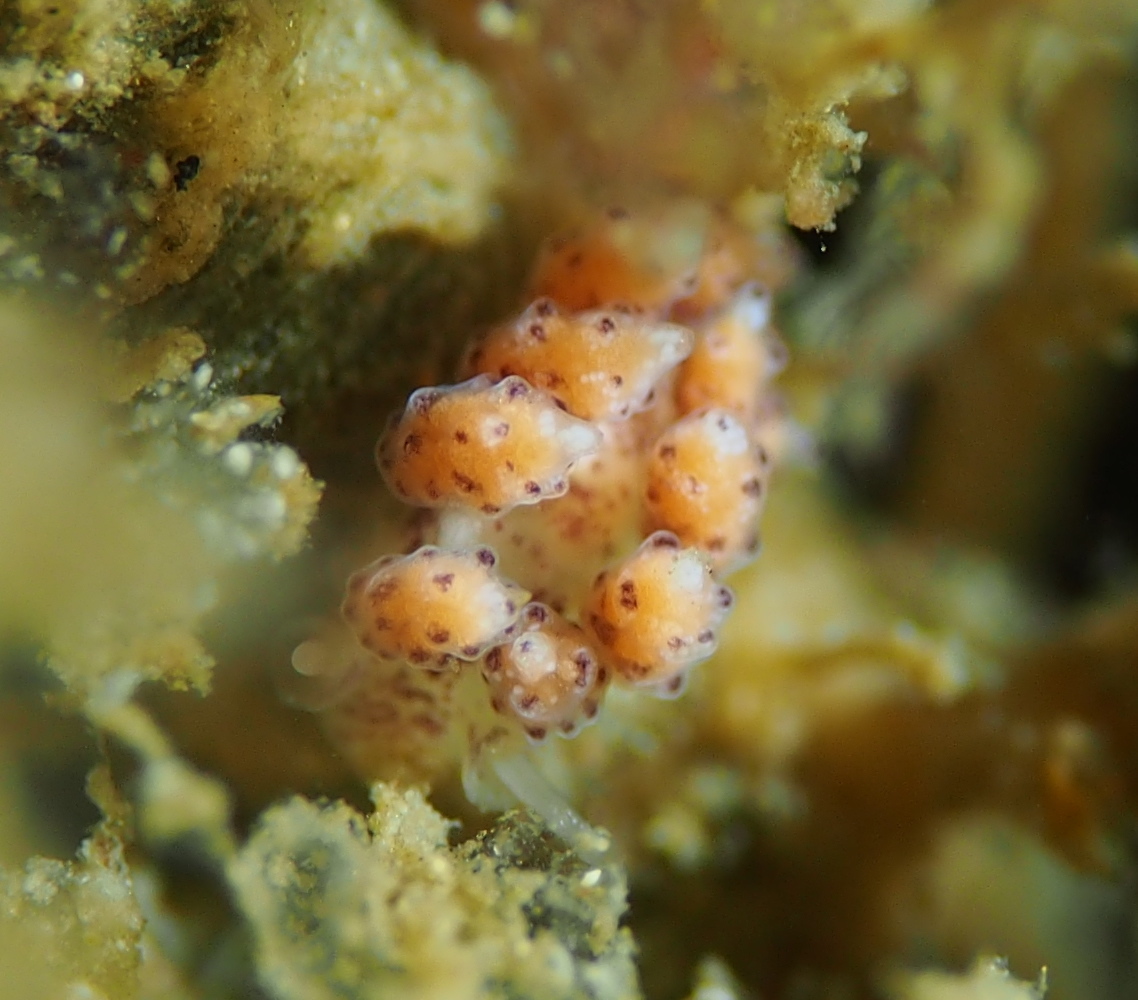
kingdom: Animalia
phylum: Mollusca
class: Gastropoda
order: Nudibranchia
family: Dotidae
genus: Doto
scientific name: Doto dunnei
